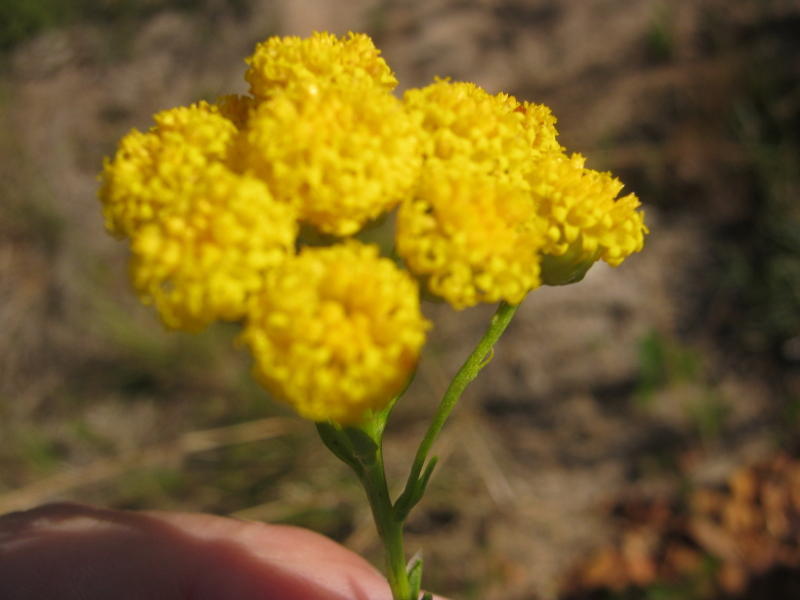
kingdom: Plantae
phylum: Tracheophyta
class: Magnoliopsida
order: Asterales
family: Asteraceae
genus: Athanasia
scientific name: Athanasia trifurcata
